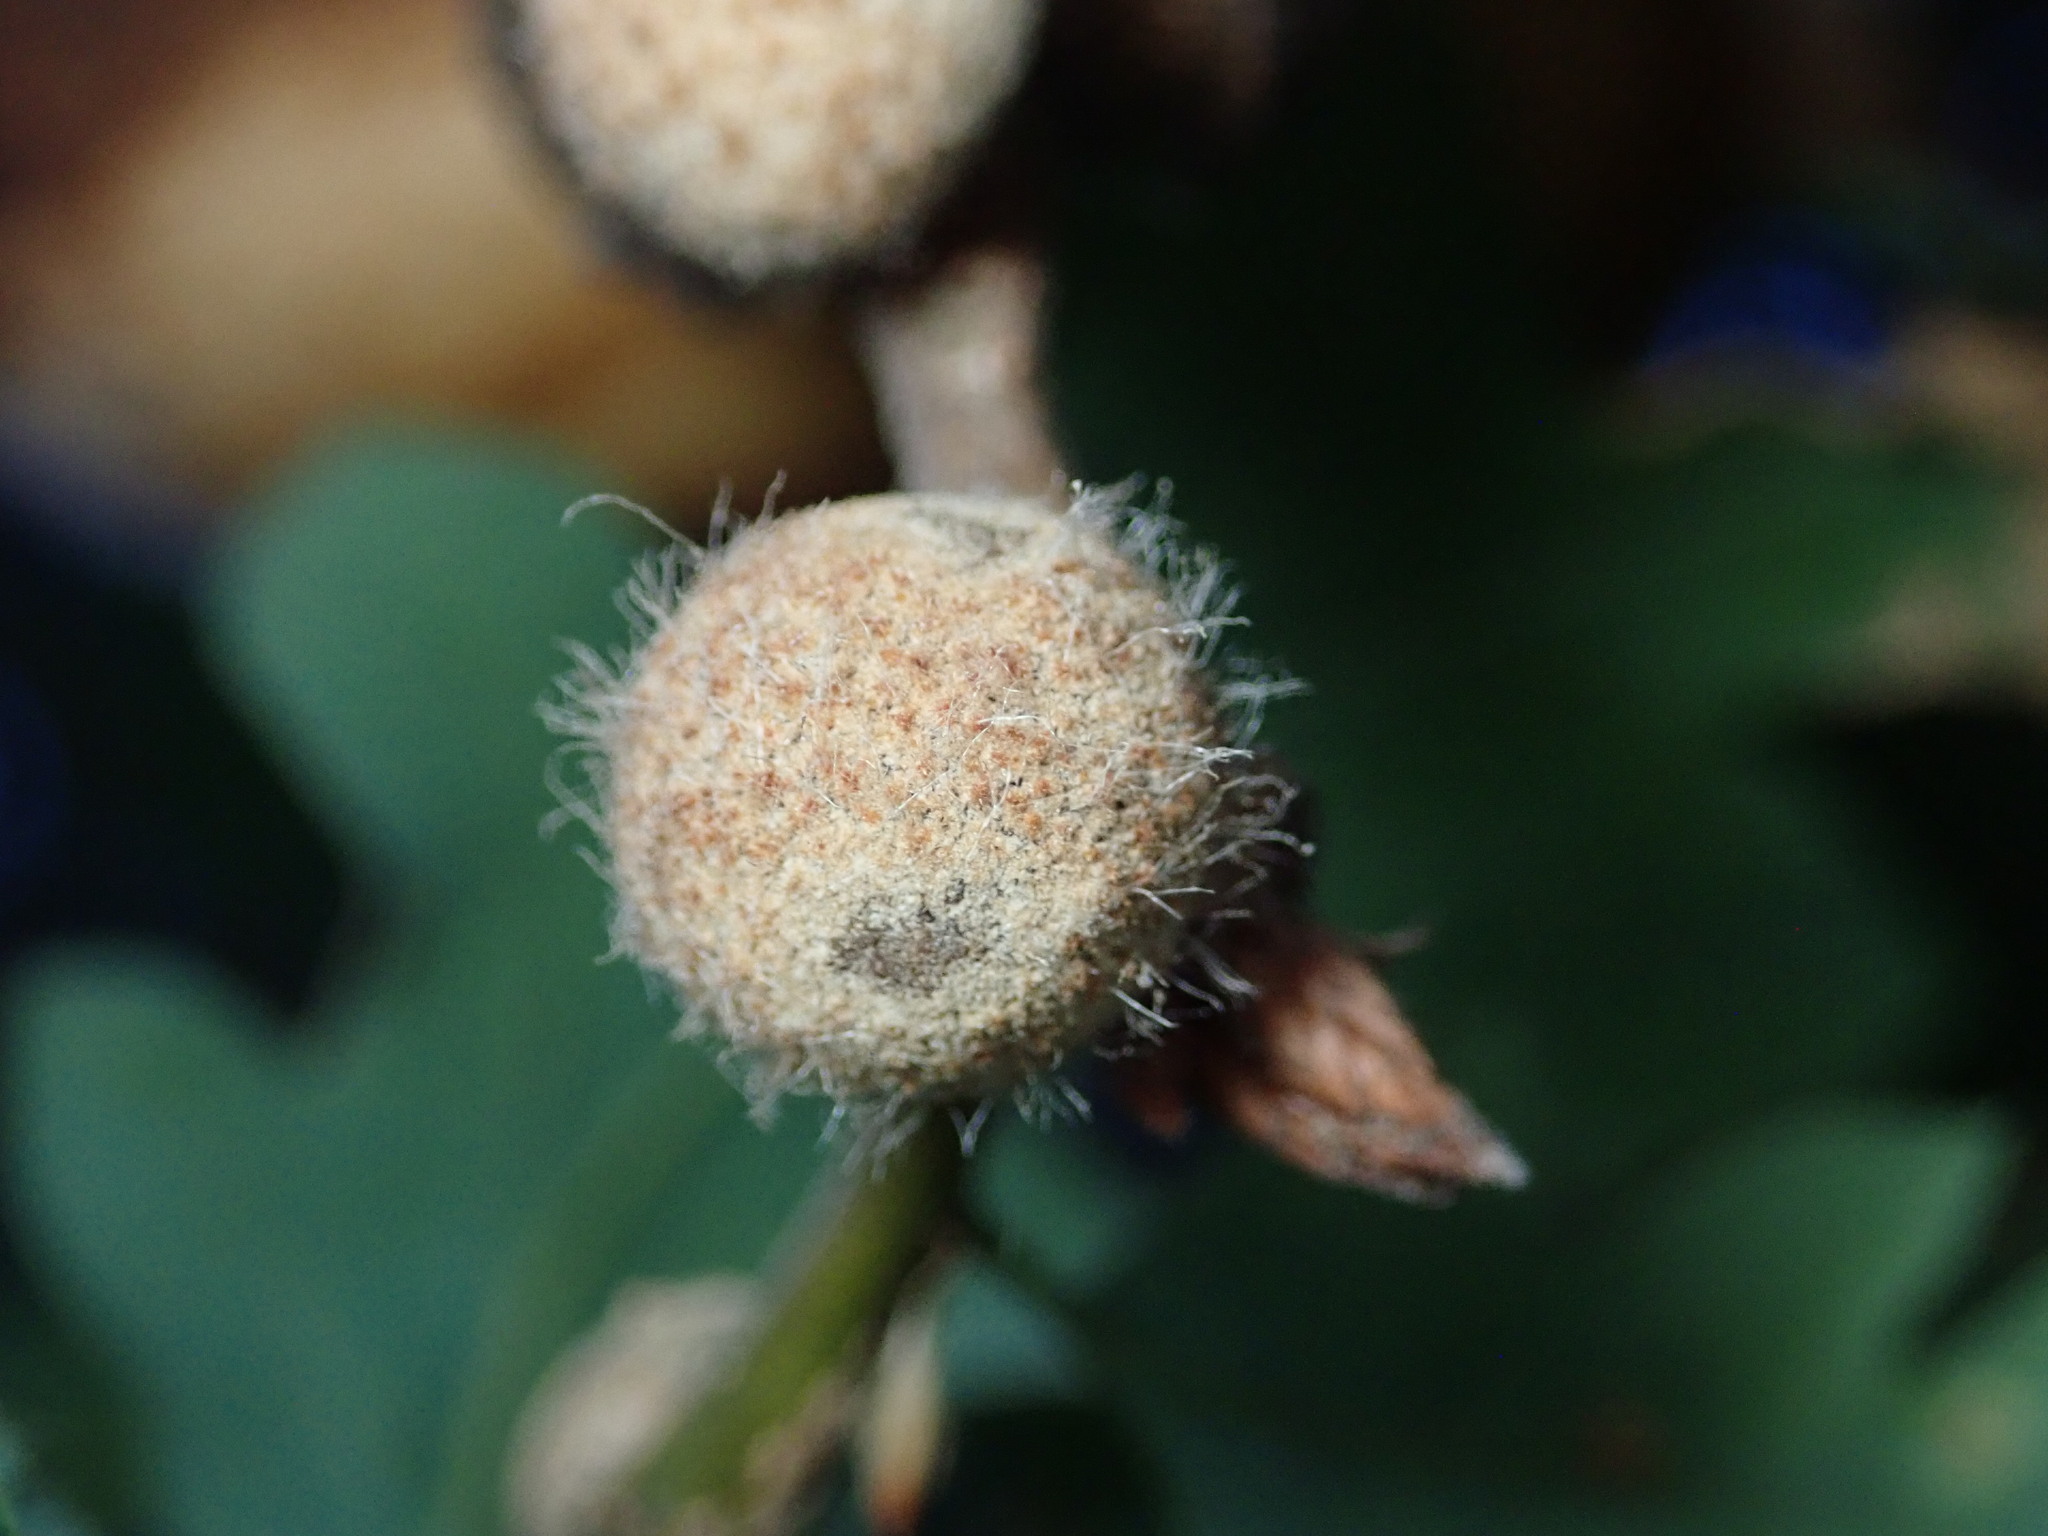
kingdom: Animalia
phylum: Arthropoda
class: Insecta
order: Hymenoptera
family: Cynipidae
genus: Burnettweldia
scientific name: Burnettweldia
